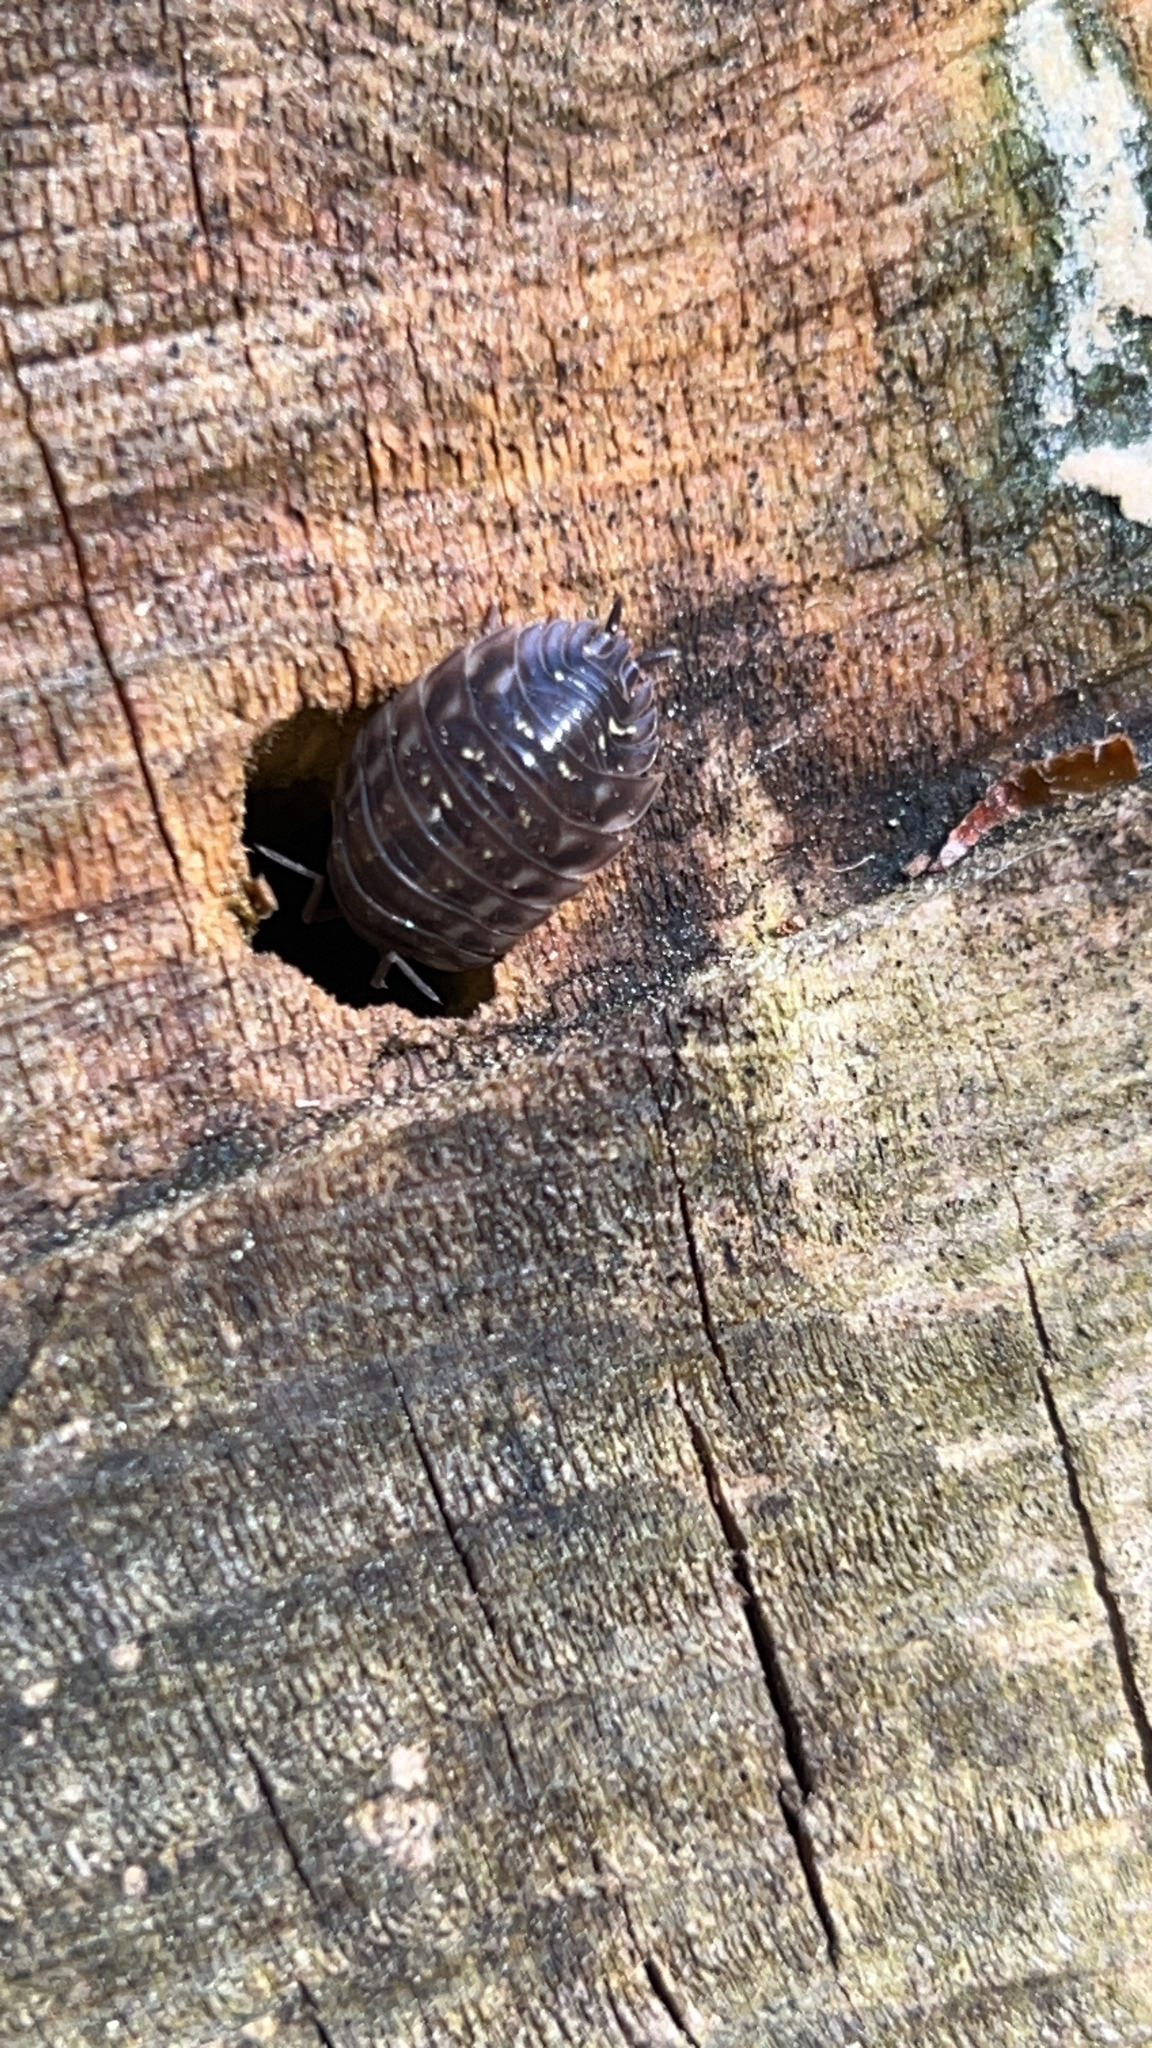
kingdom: Animalia
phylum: Arthropoda
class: Malacostraca
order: Isopoda
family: Oniscidae
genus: Oniscus
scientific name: Oniscus asellus
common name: Common shiny woodlouse
